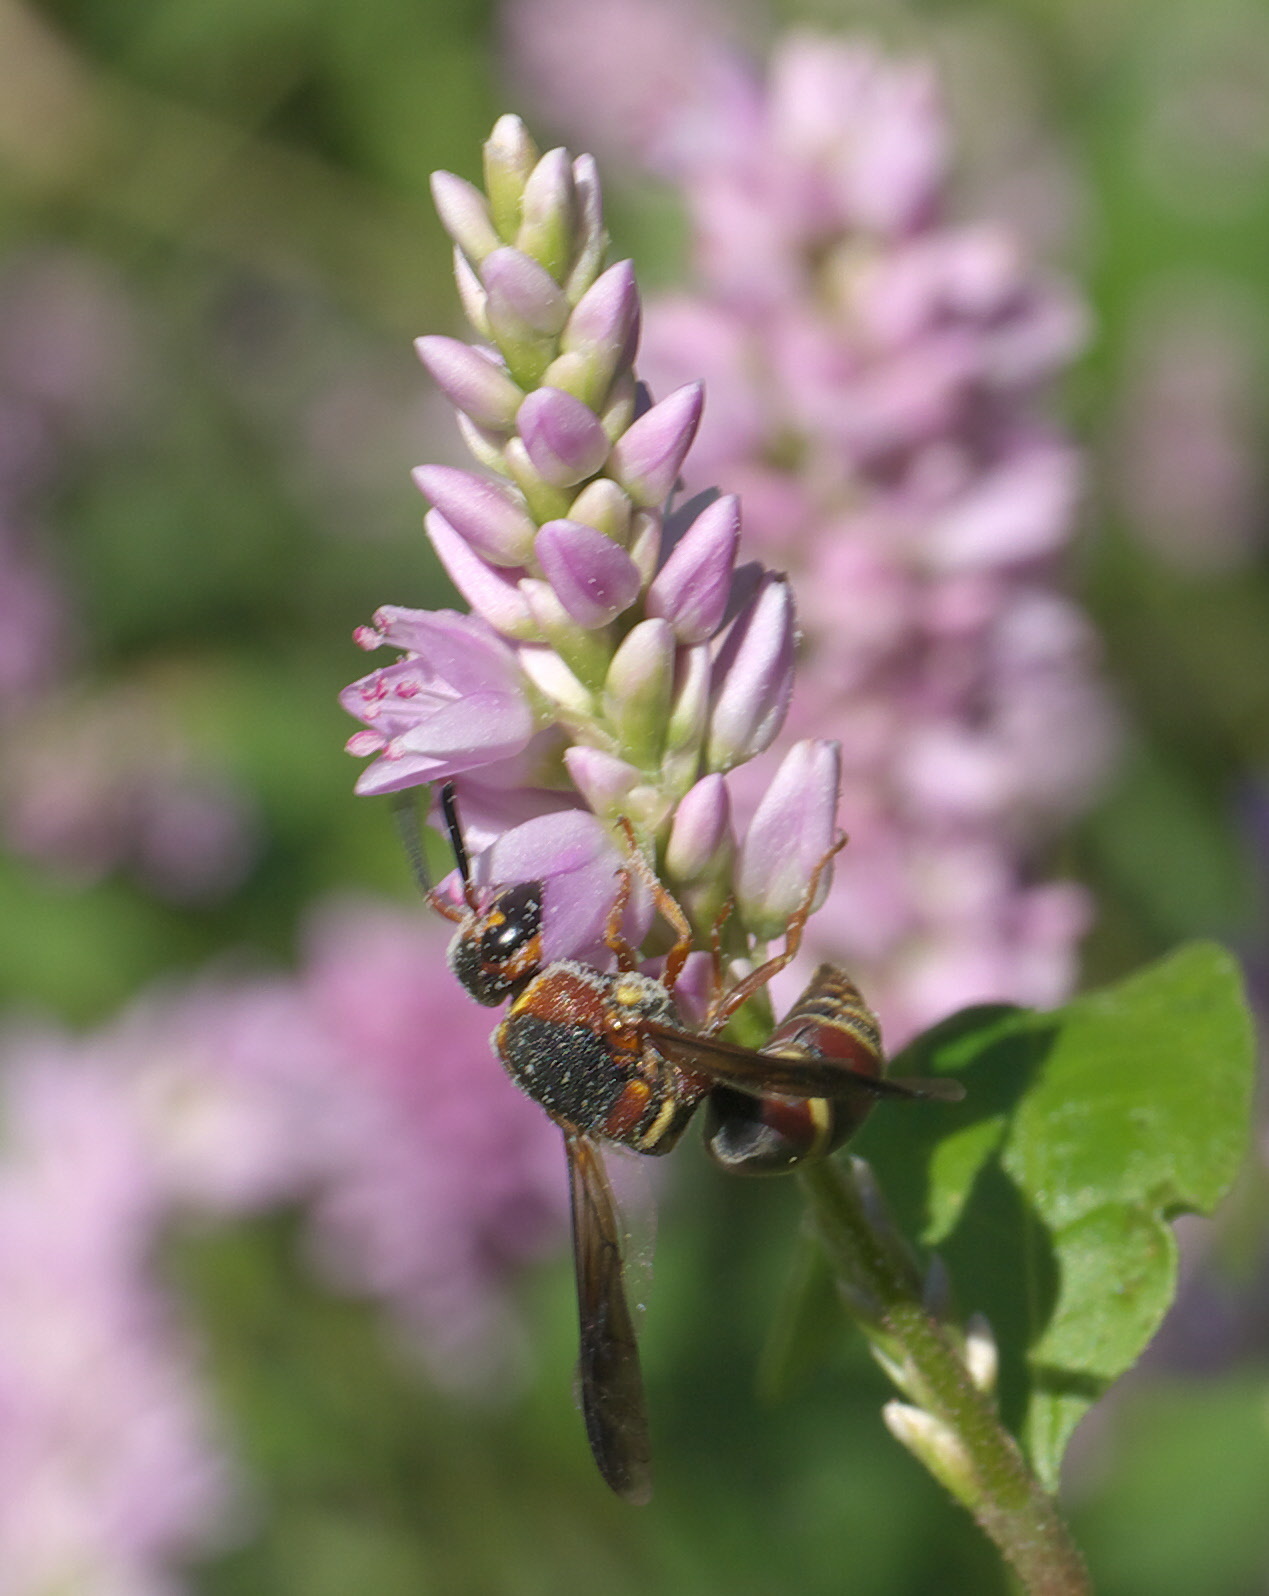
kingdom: Animalia
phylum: Arthropoda
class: Insecta
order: Hymenoptera
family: Eumenidae
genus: Euodynerus
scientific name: Euodynerus hidalgo
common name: Wasp
